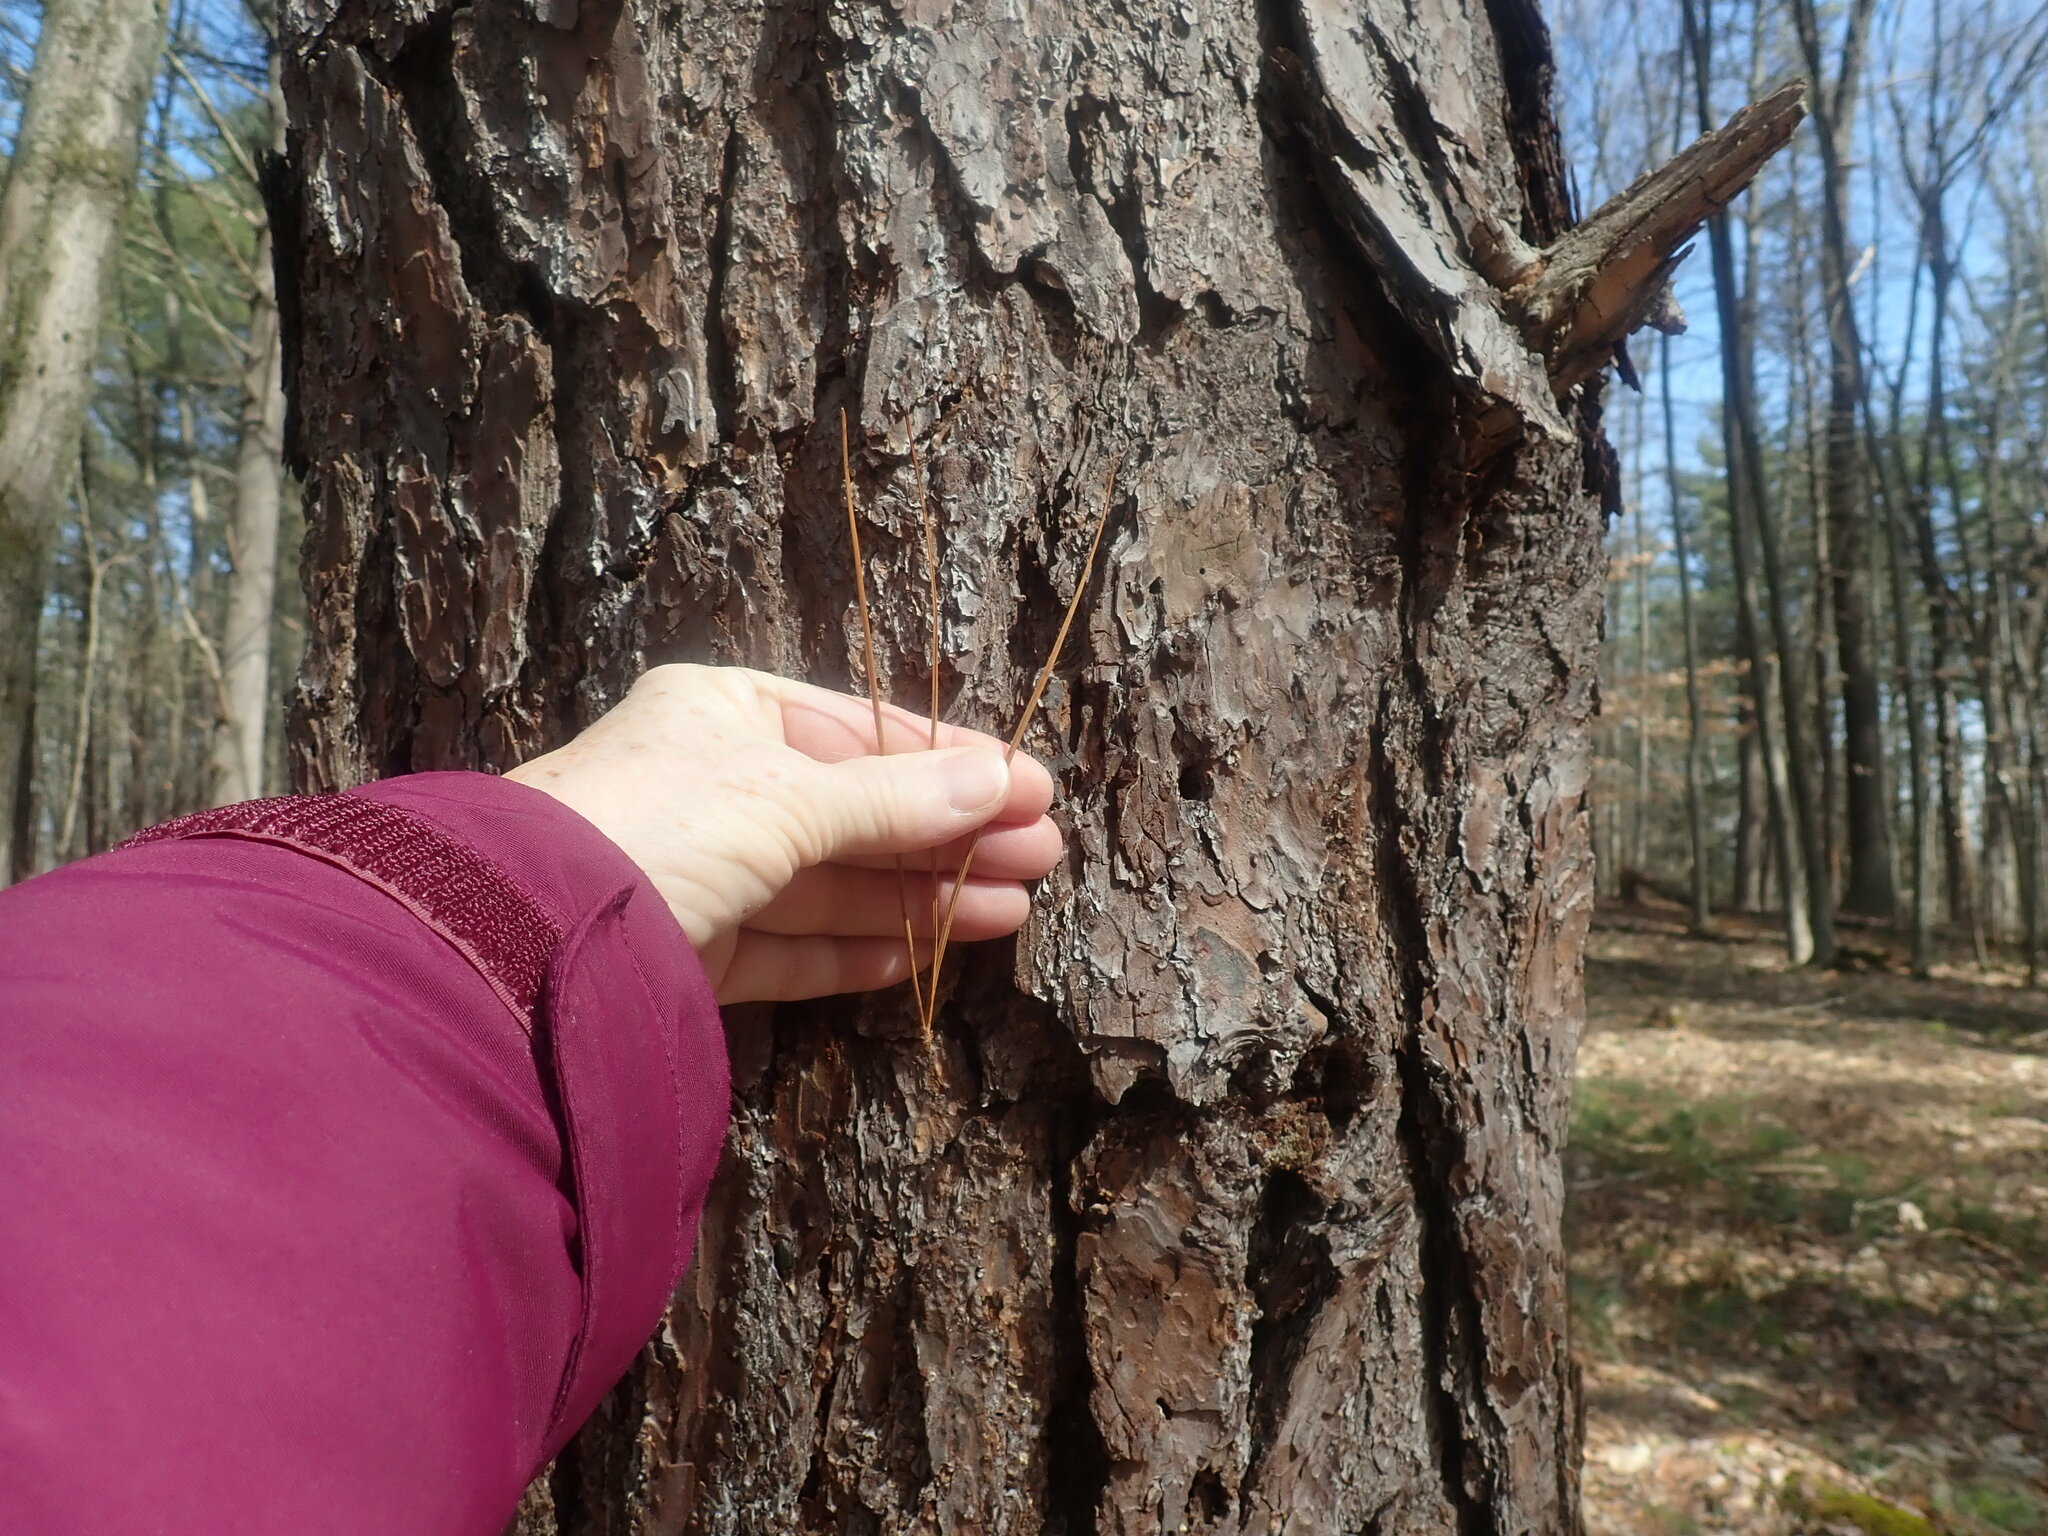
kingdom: Plantae
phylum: Tracheophyta
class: Pinopsida
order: Pinales
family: Pinaceae
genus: Pinus
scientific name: Pinus rigida
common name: Pitch pine
